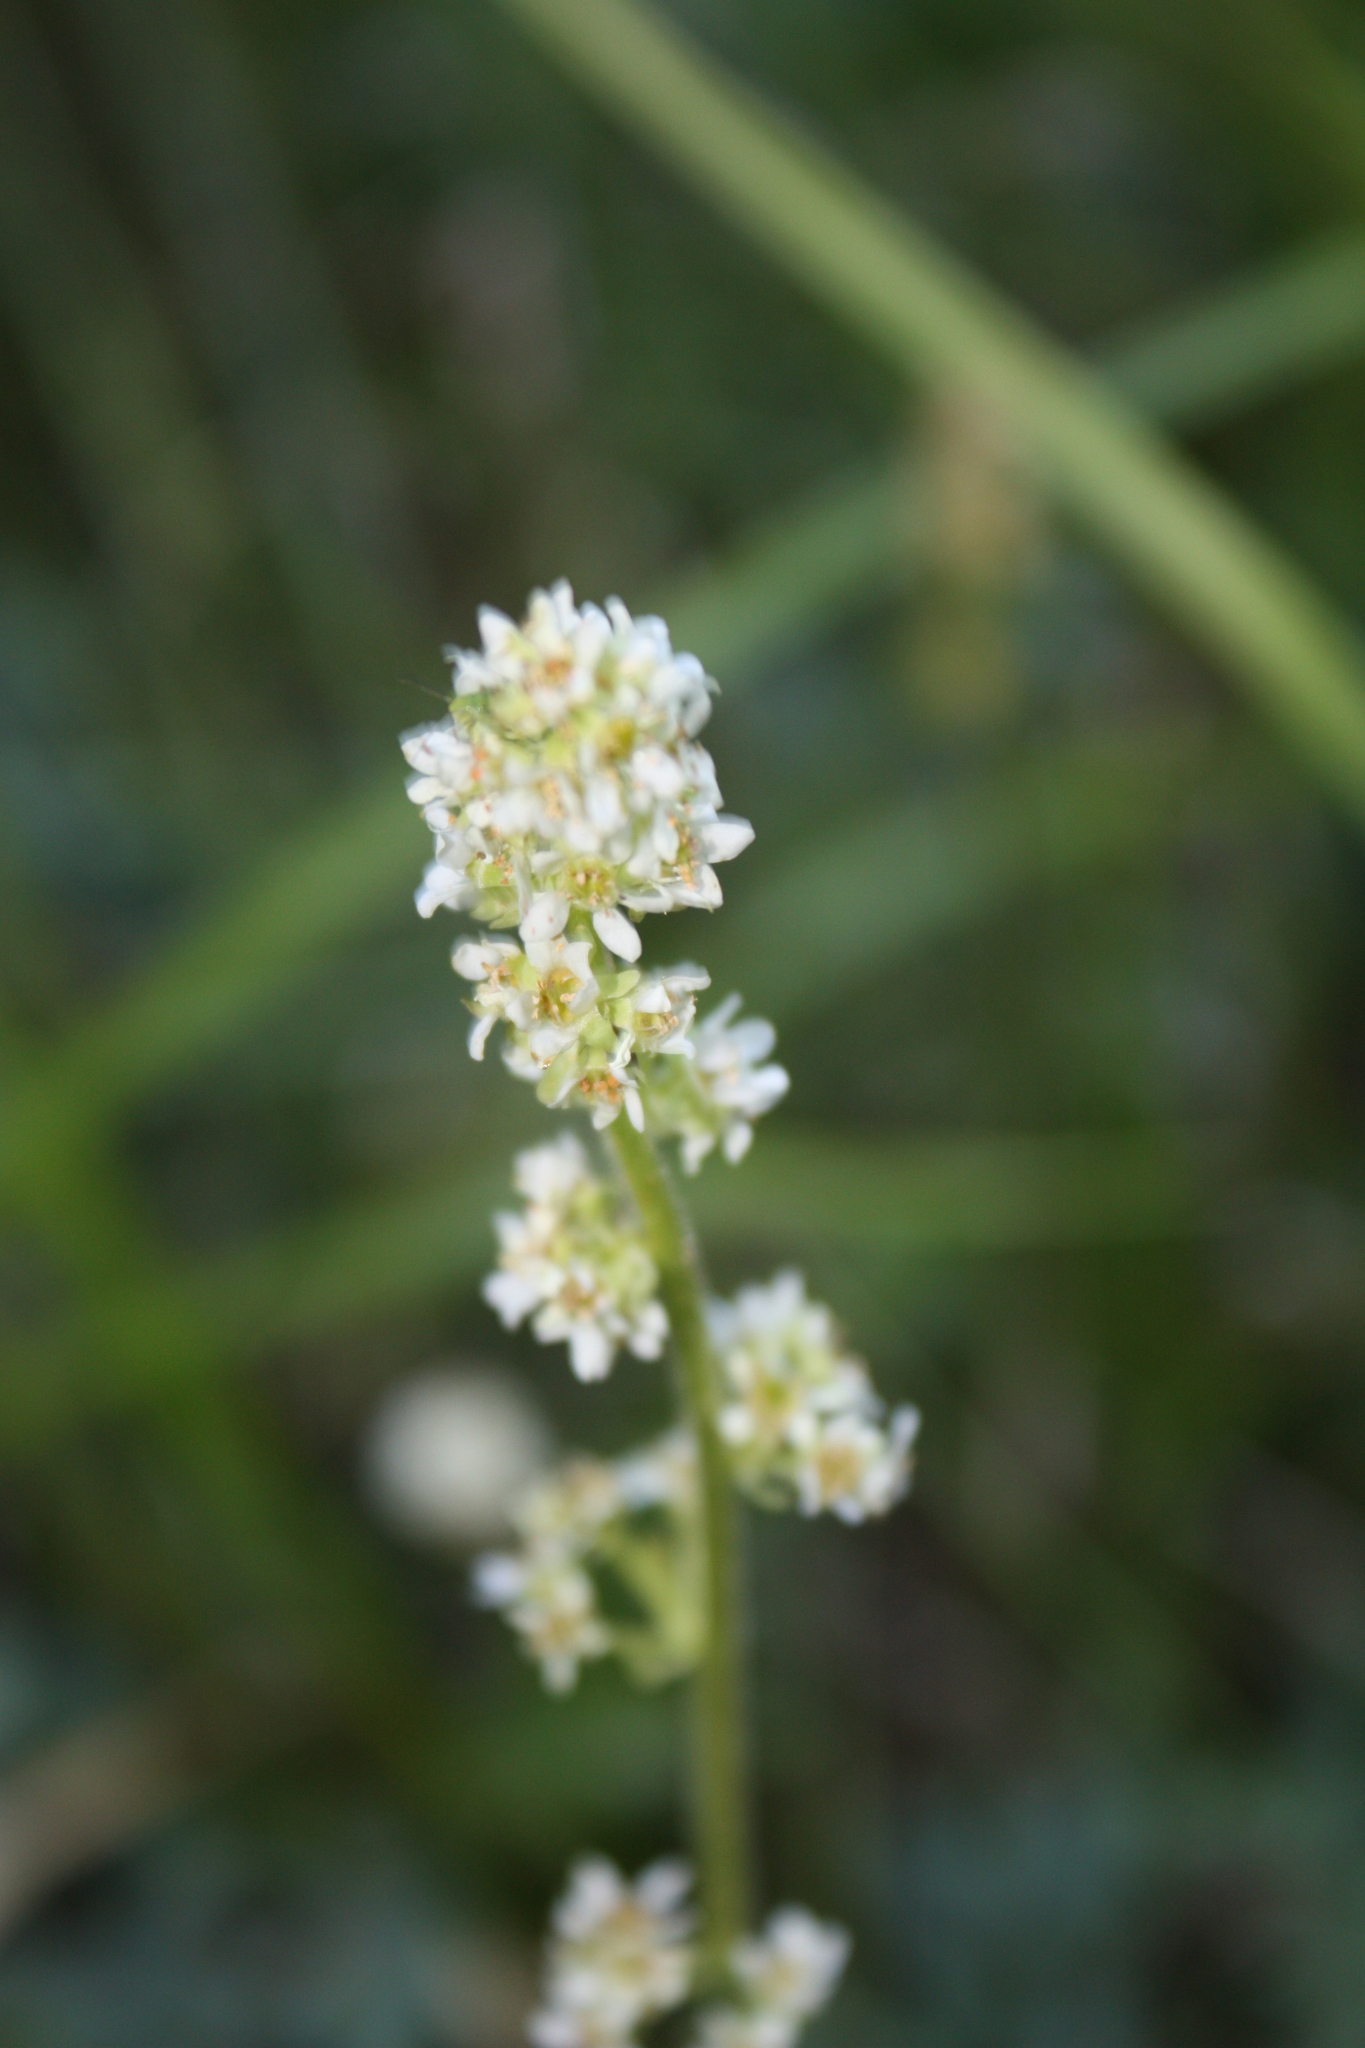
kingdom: Plantae
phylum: Tracheophyta
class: Magnoliopsida
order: Saxifragales
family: Saxifragaceae
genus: Micranthes
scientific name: Micranthes oregana
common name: Bog saxifrage
